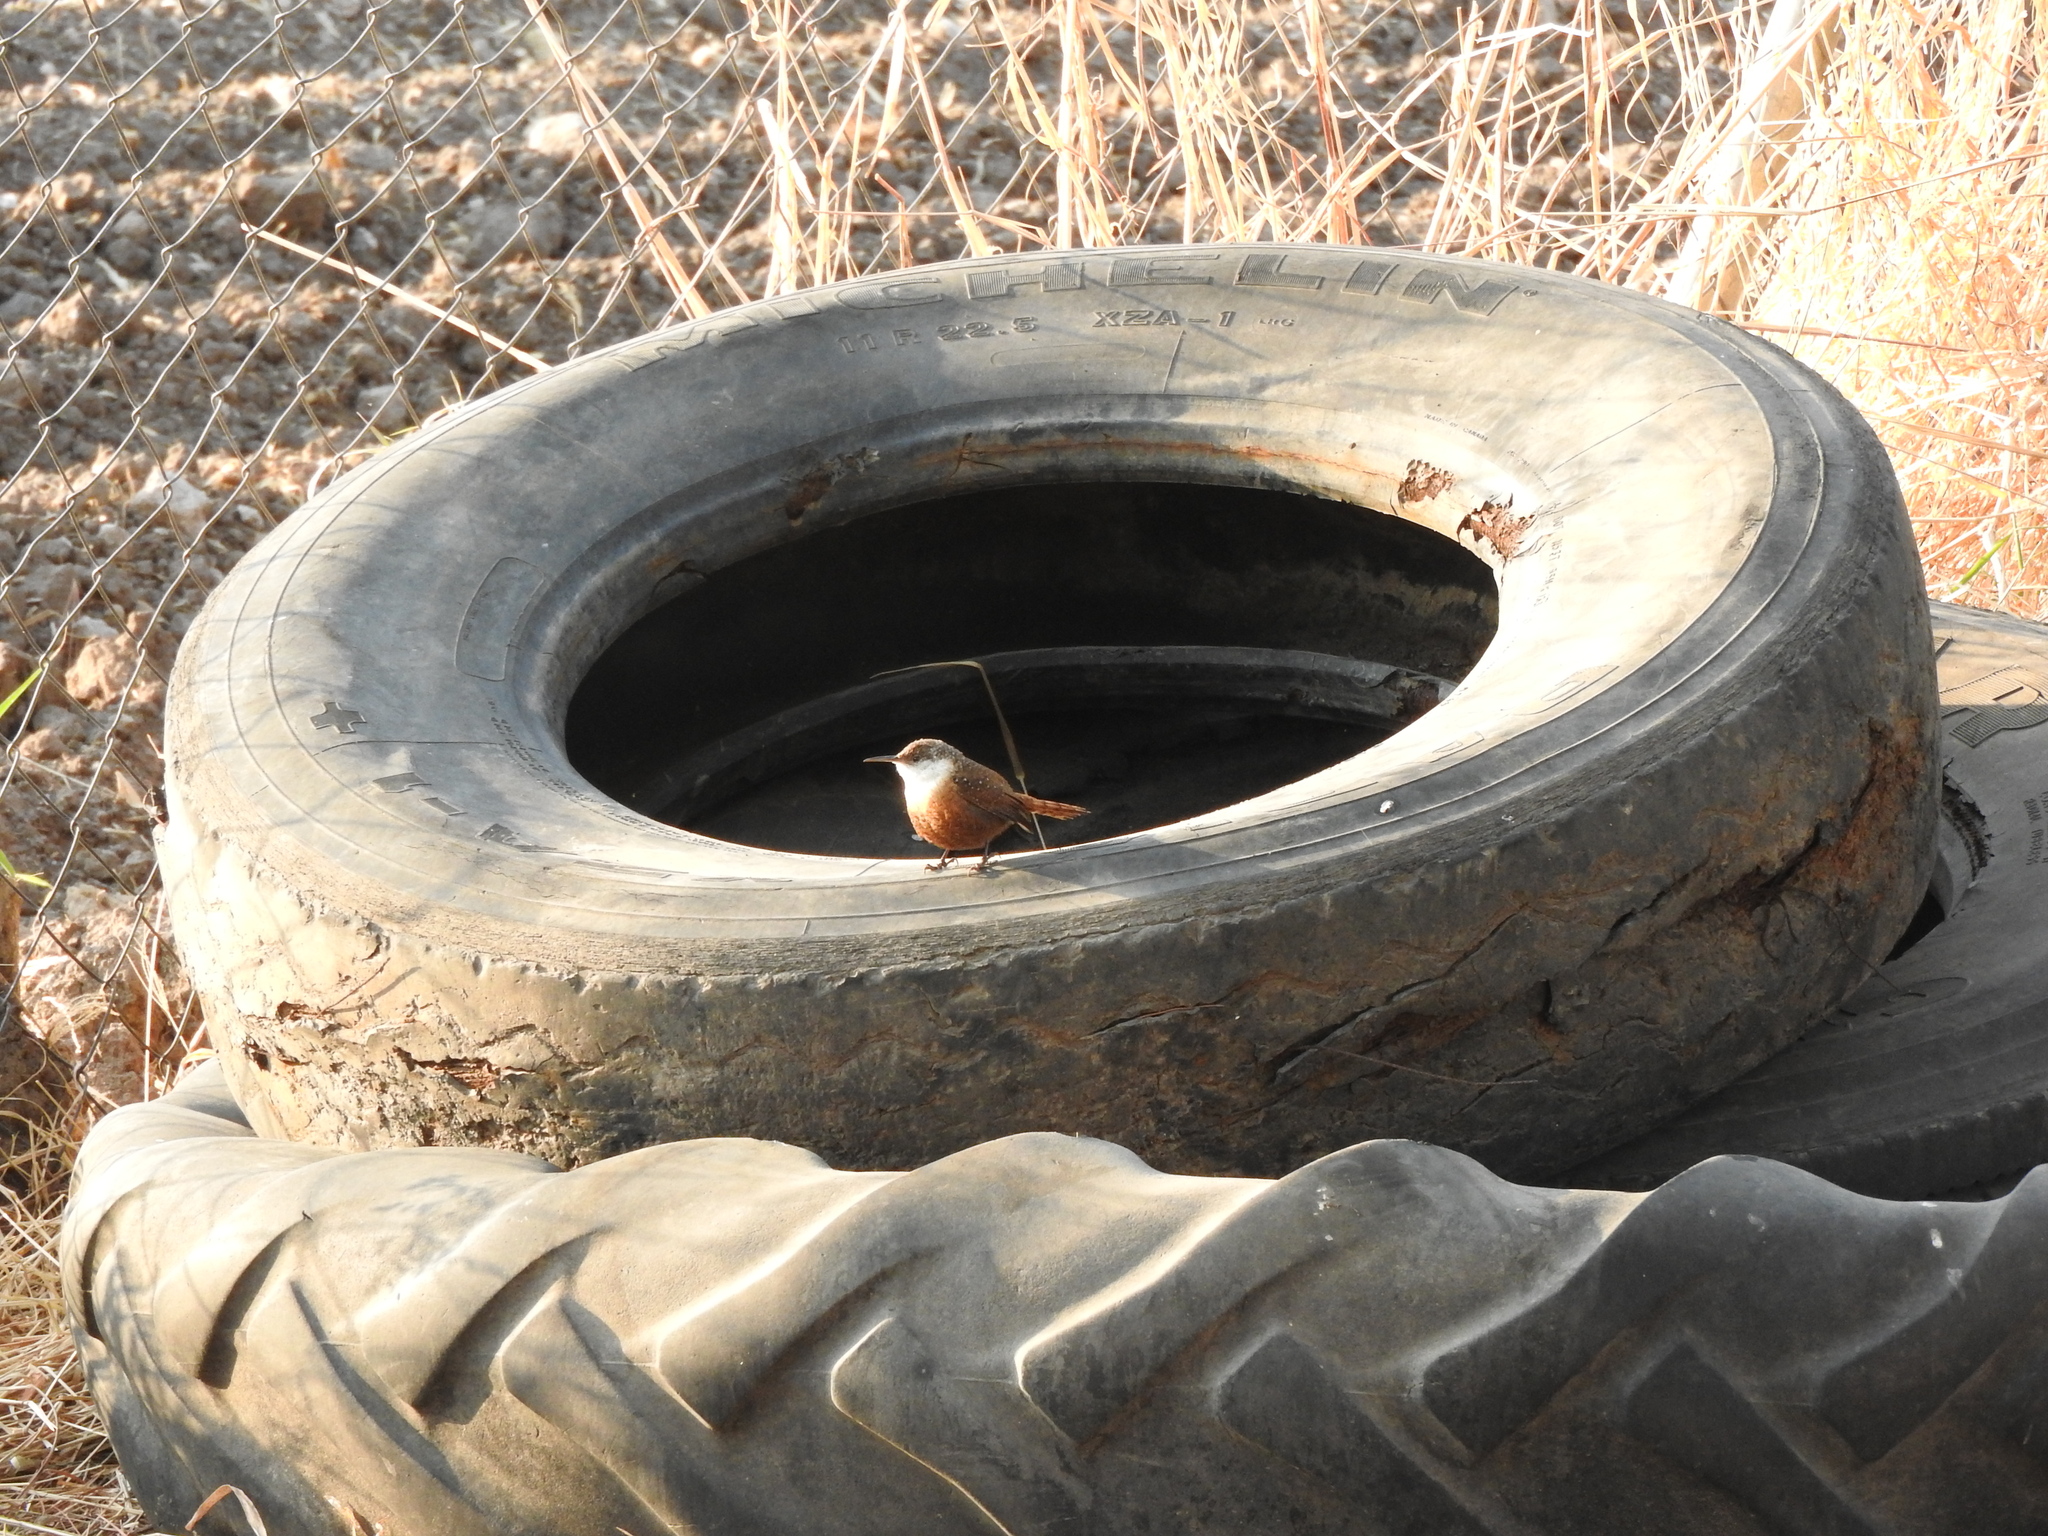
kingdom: Animalia
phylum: Chordata
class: Aves
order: Passeriformes
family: Troglodytidae
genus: Catherpes
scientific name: Catherpes mexicanus
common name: Canyon wren
